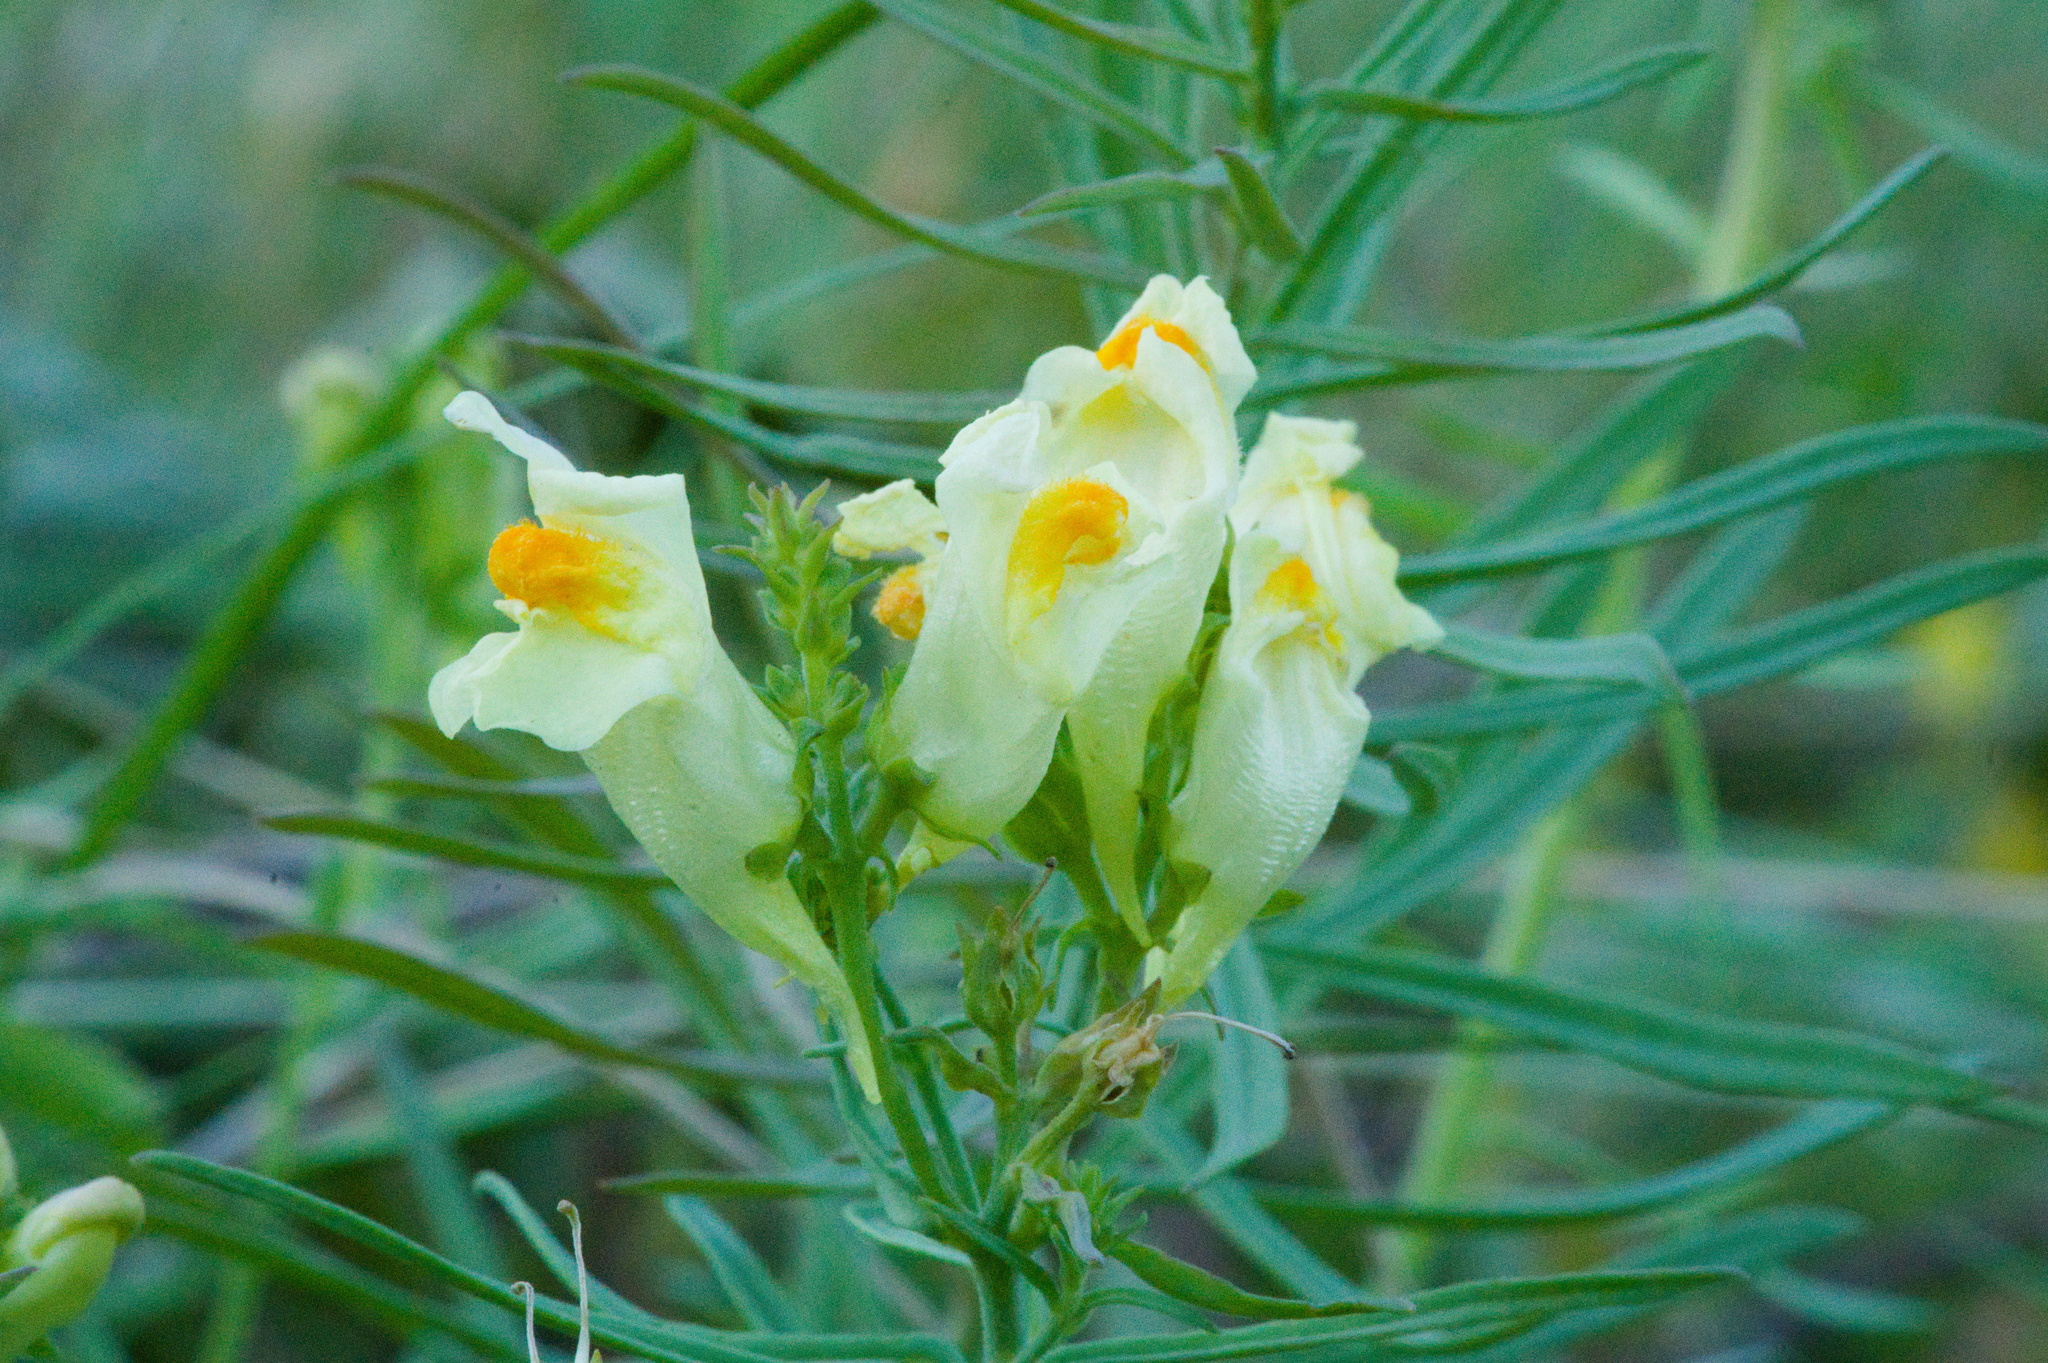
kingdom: Plantae
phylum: Tracheophyta
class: Magnoliopsida
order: Lamiales
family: Plantaginaceae
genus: Linaria
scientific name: Linaria vulgaris
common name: Butter and eggs
